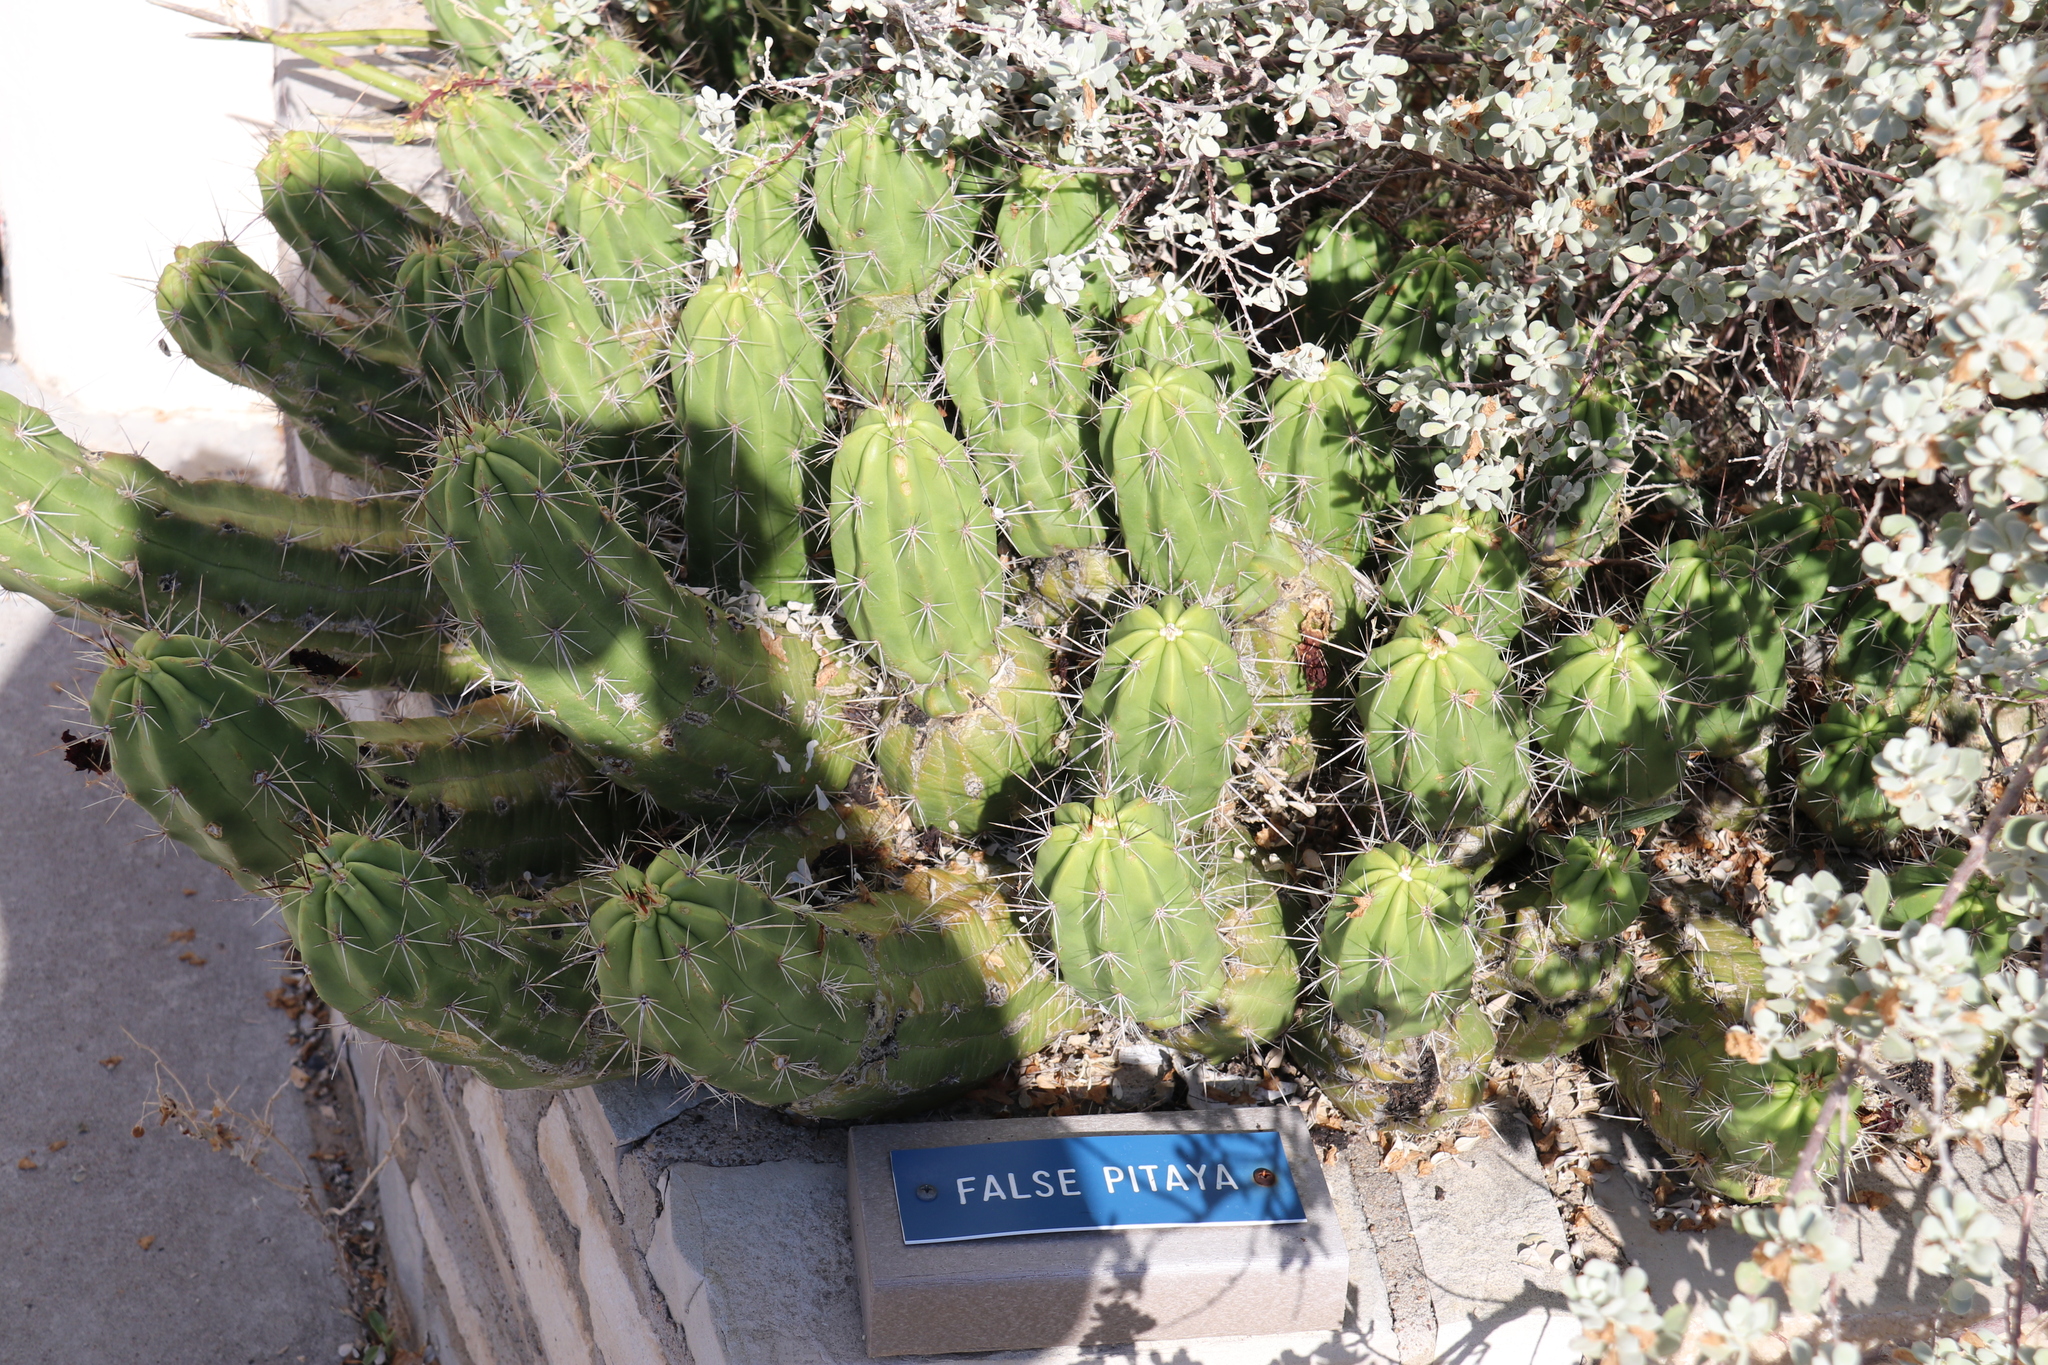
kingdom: Plantae
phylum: Tracheophyta
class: Magnoliopsida
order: Caryophyllales
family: Cactaceae
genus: Echinocereus
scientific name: Echinocereus enneacanthus
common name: Pitaya
